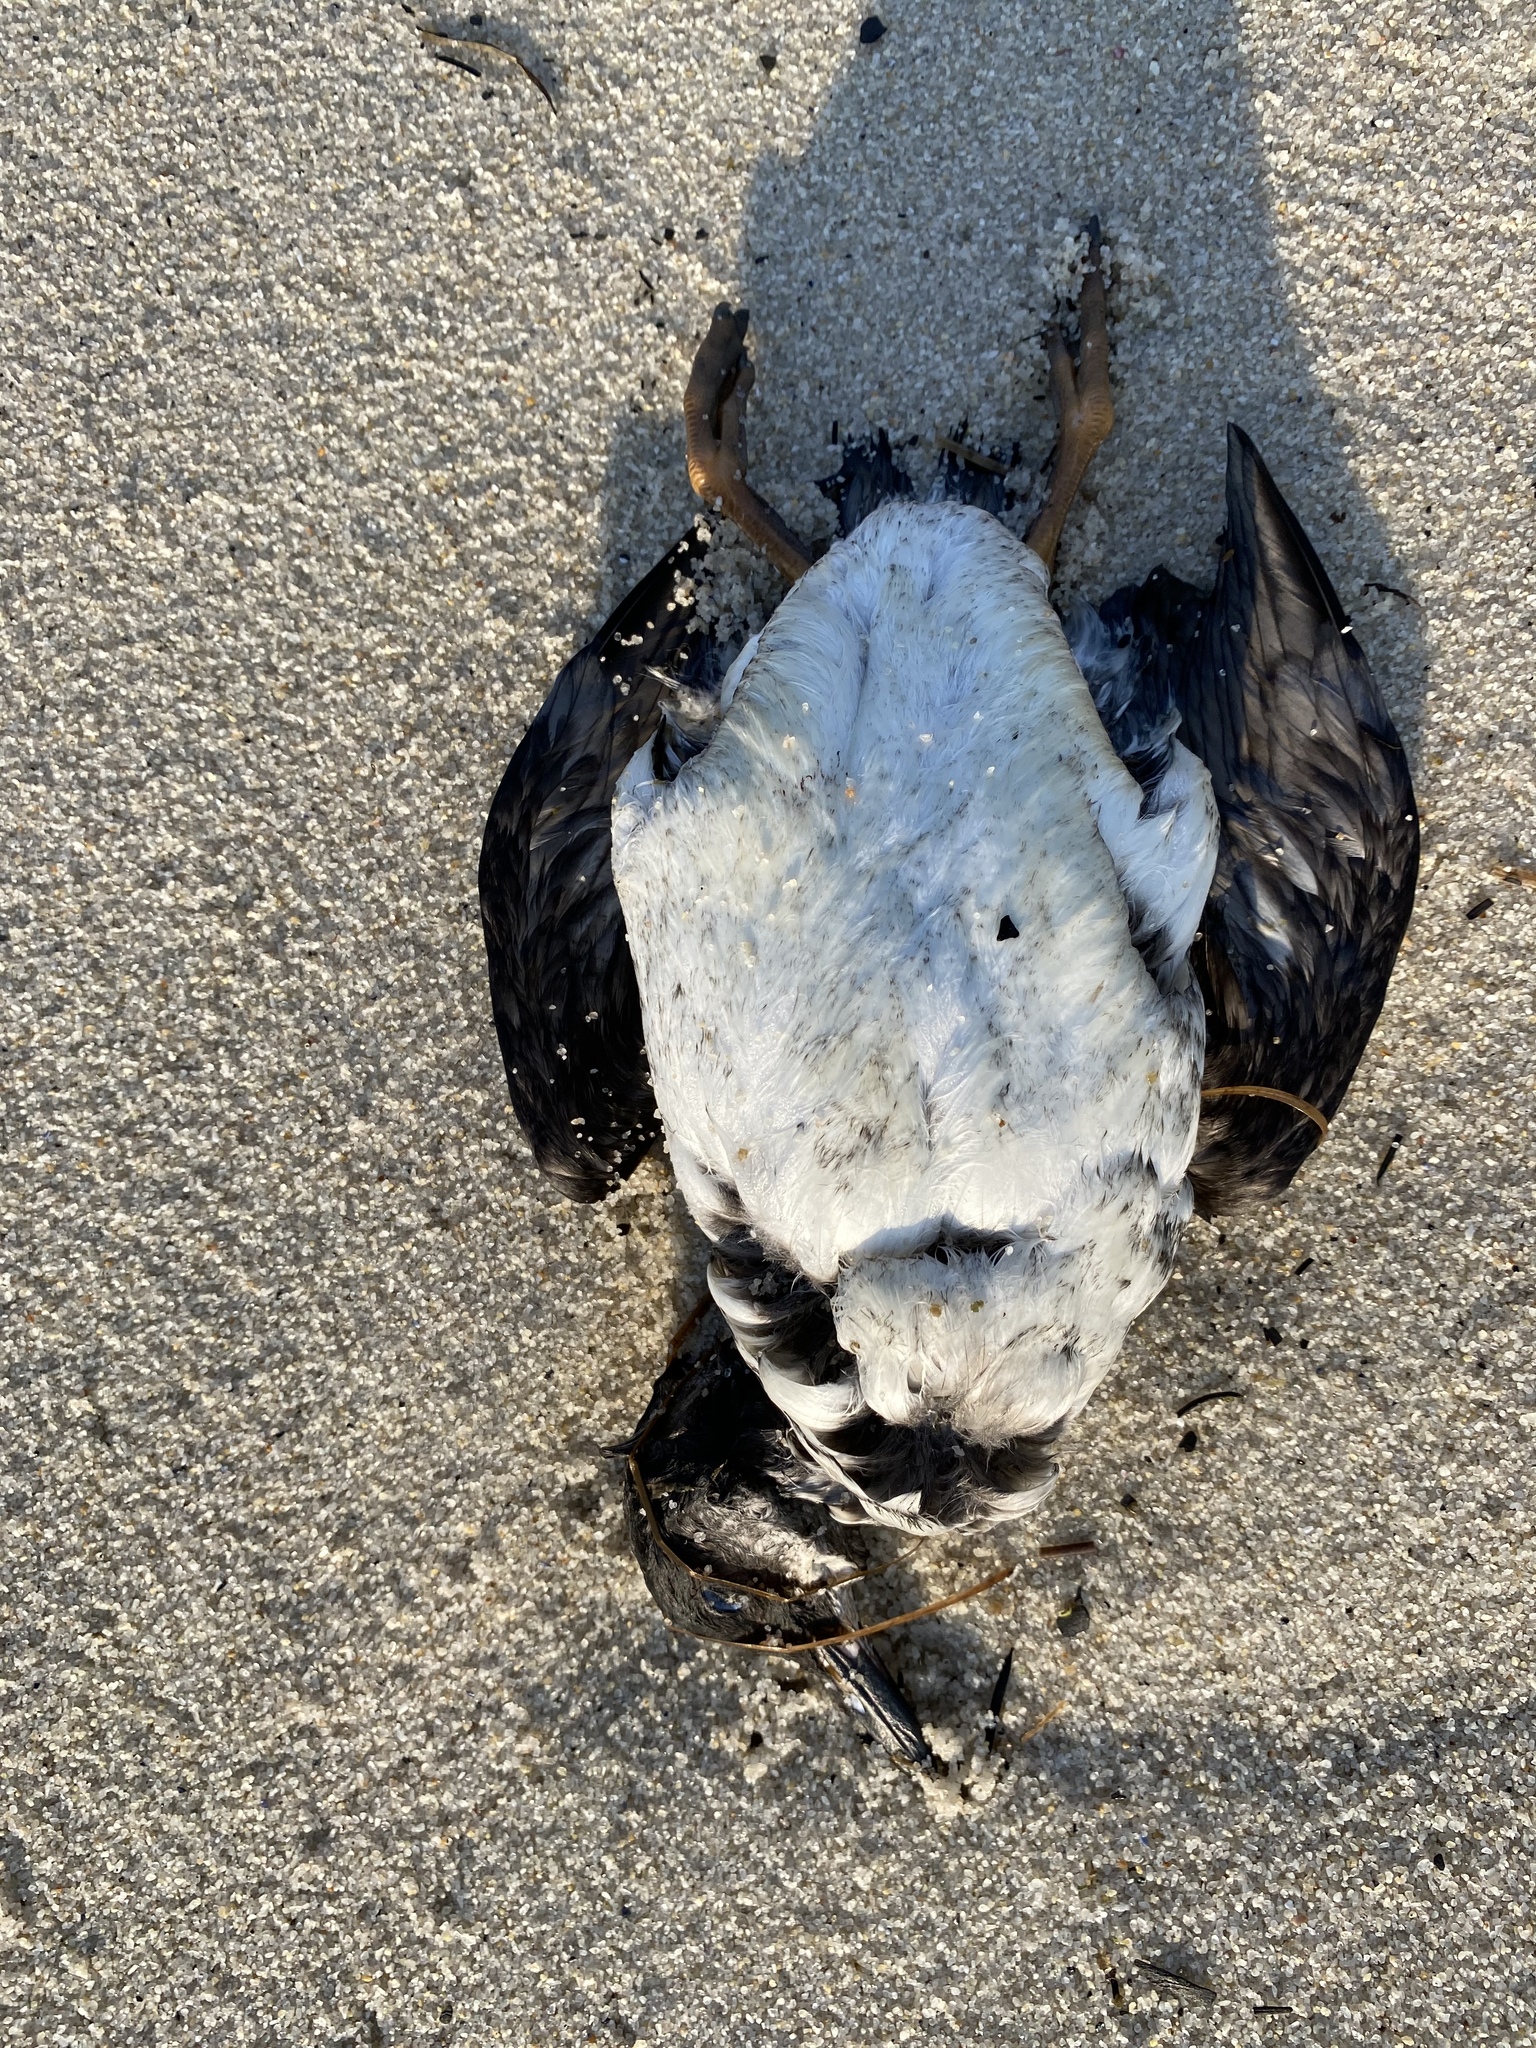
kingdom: Animalia
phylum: Chordata
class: Aves
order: Charadriiformes
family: Alcidae
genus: Uria
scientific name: Uria aalge
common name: Common murre
